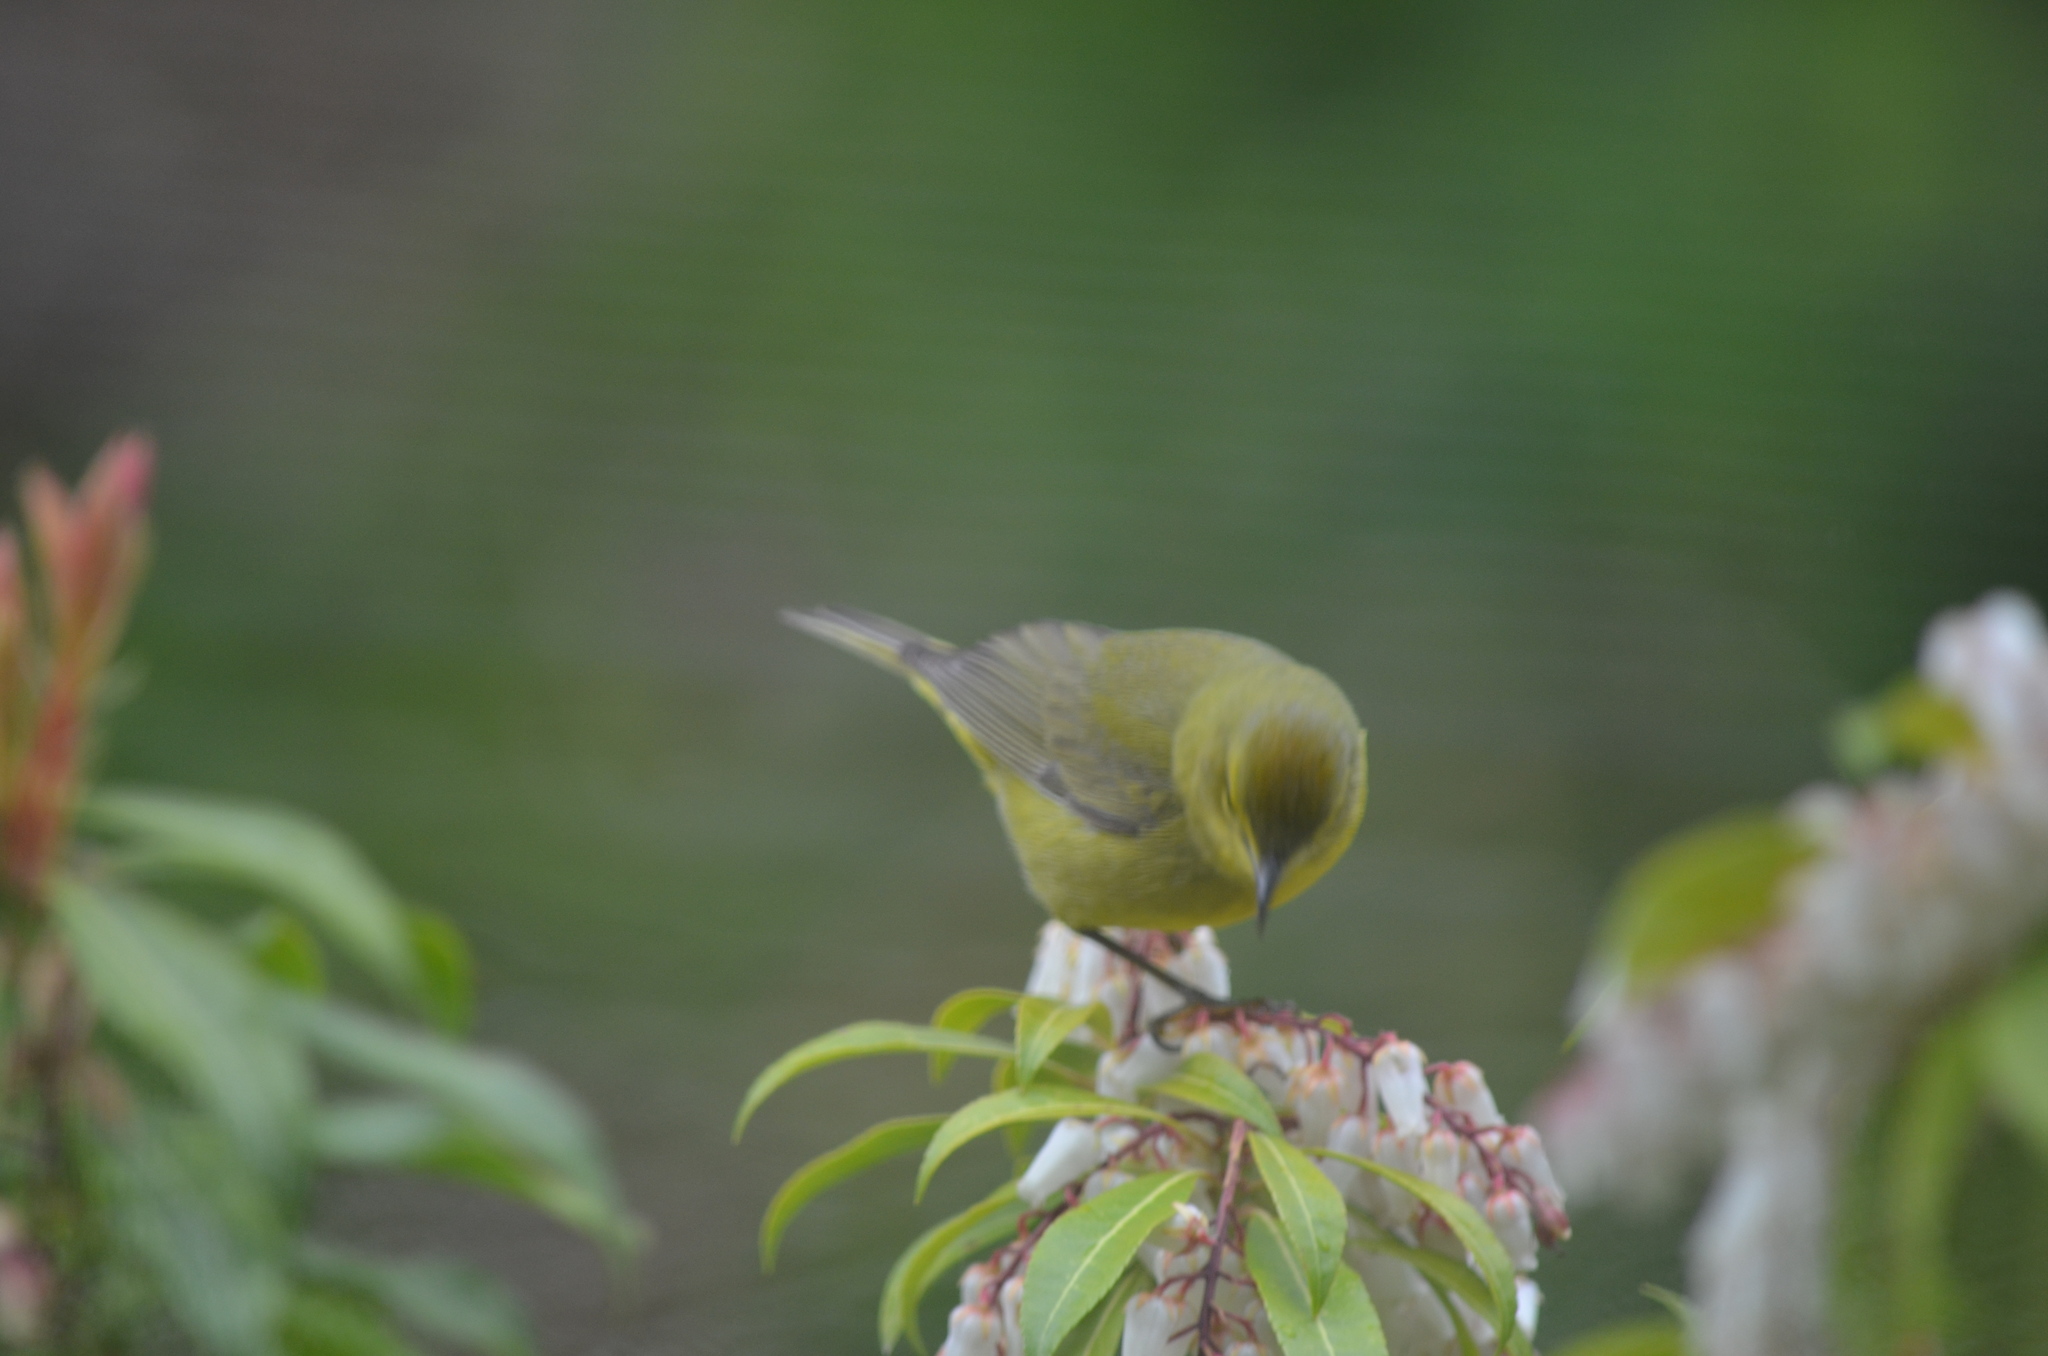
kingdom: Animalia
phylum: Chordata
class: Aves
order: Passeriformes
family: Parulidae
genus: Leiothlypis
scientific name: Leiothlypis celata
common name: Orange-crowned warbler
